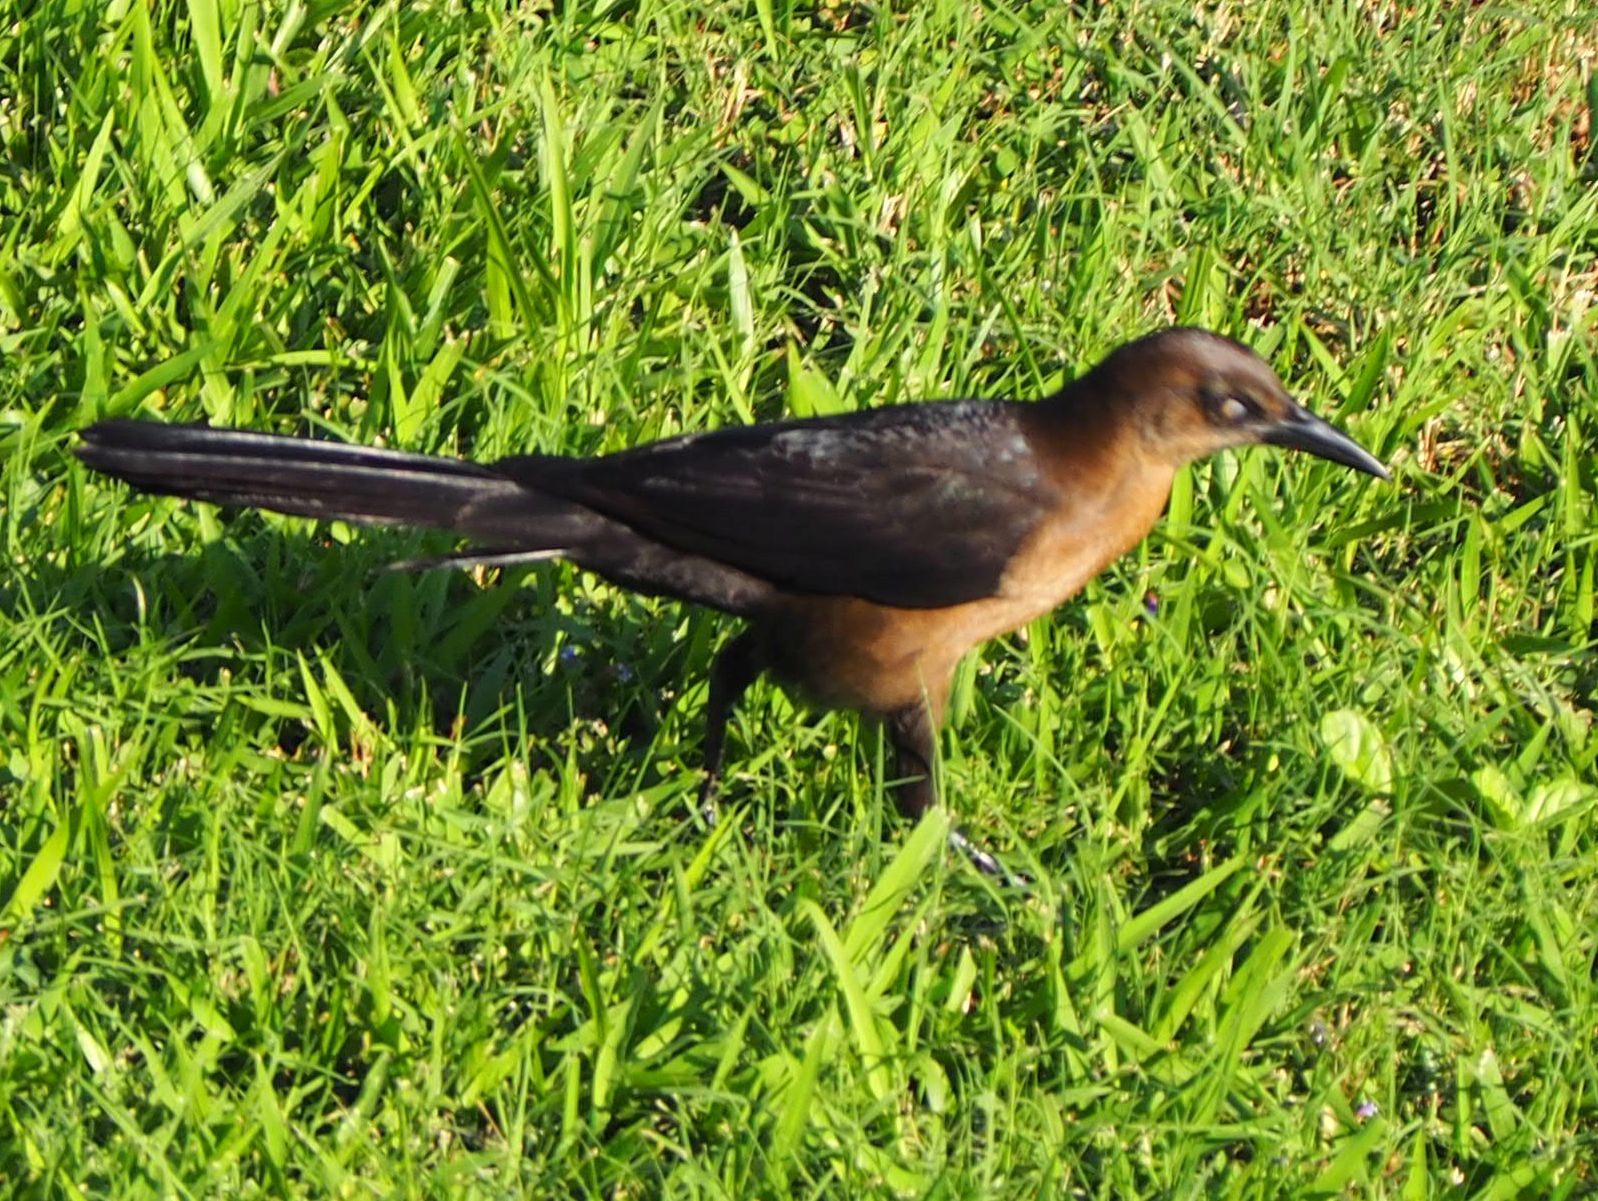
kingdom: Animalia
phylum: Chordata
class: Aves
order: Passeriformes
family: Icteridae
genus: Quiscalus
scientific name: Quiscalus mexicanus
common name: Great-tailed grackle
